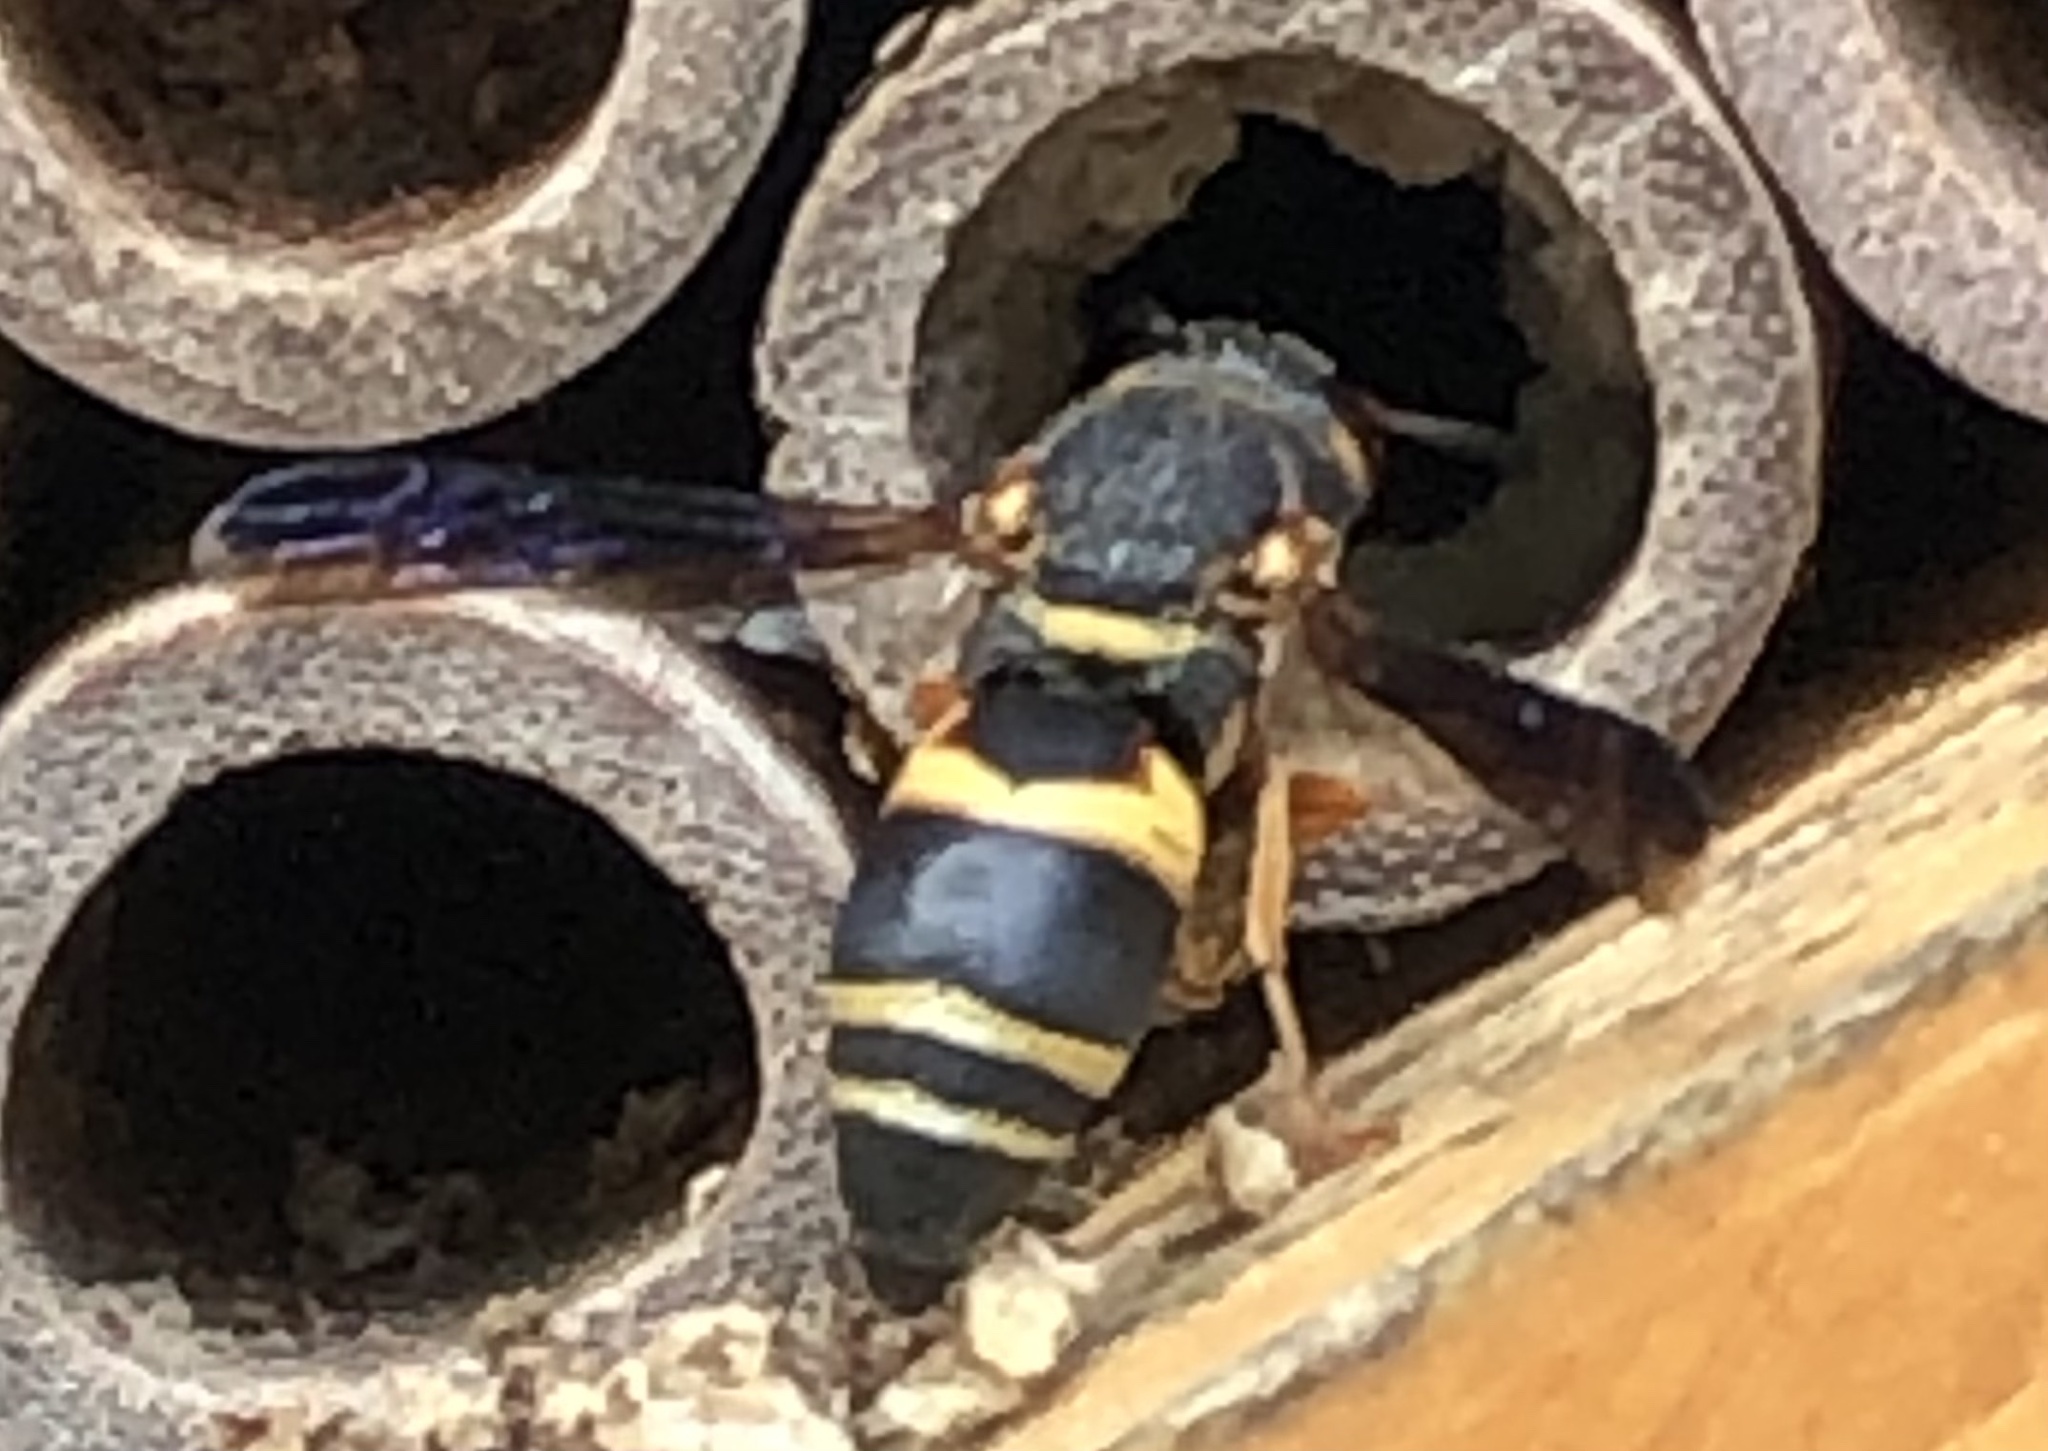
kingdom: Animalia
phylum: Arthropoda
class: Insecta
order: Hymenoptera
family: Eumenidae
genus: Euodynerus
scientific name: Euodynerus hidalgo
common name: Wasp
